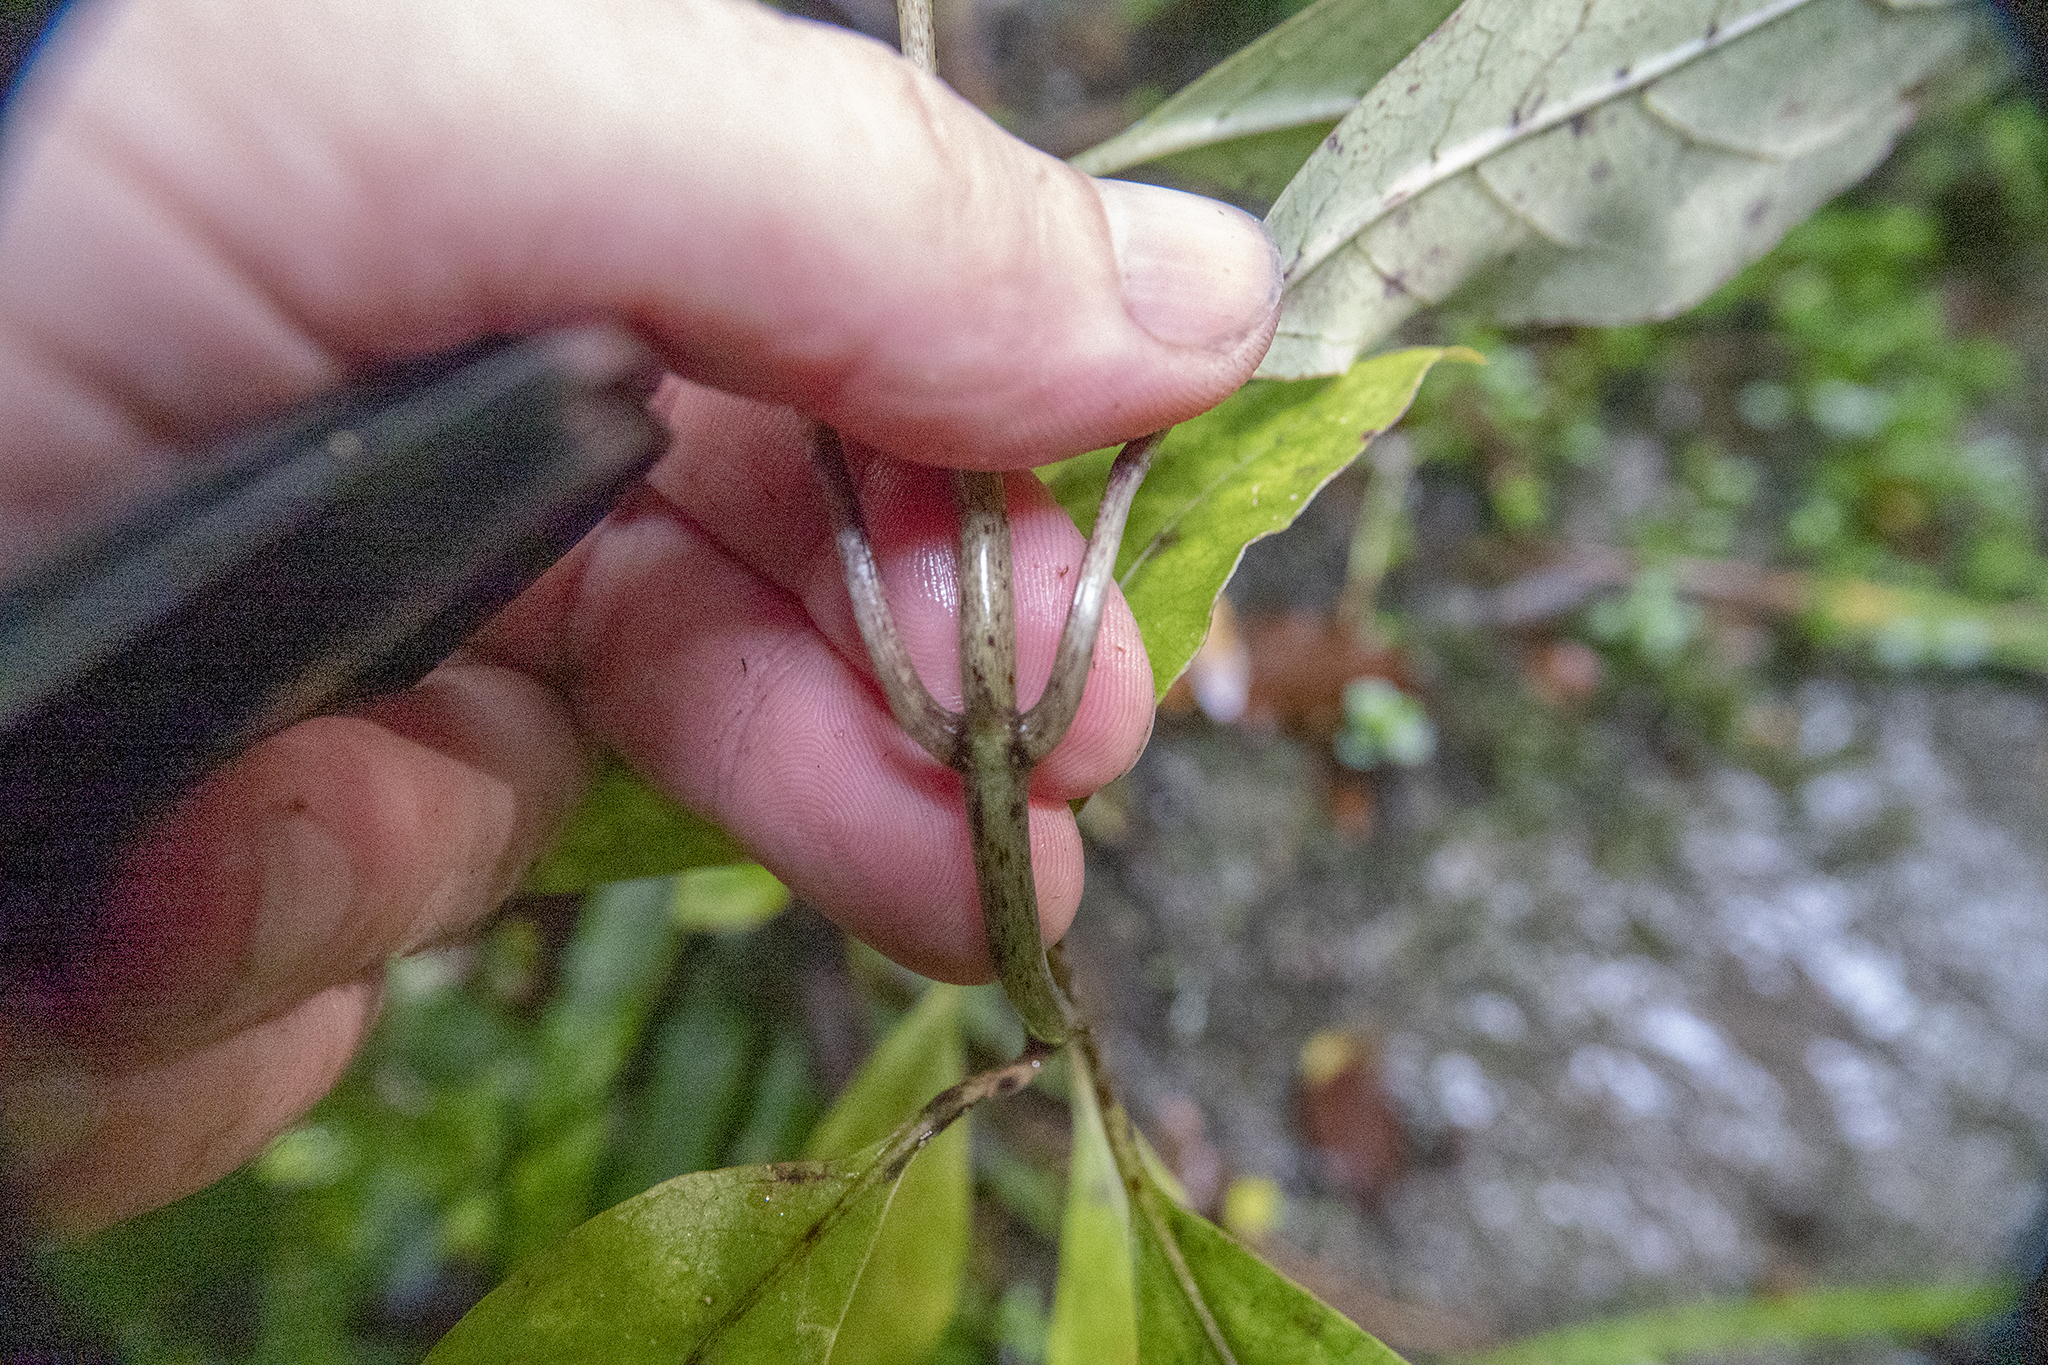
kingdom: Plantae
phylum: Tracheophyta
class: Magnoliopsida
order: Gentianales
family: Rubiaceae
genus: Coprosma
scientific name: Coprosma autumnalis
